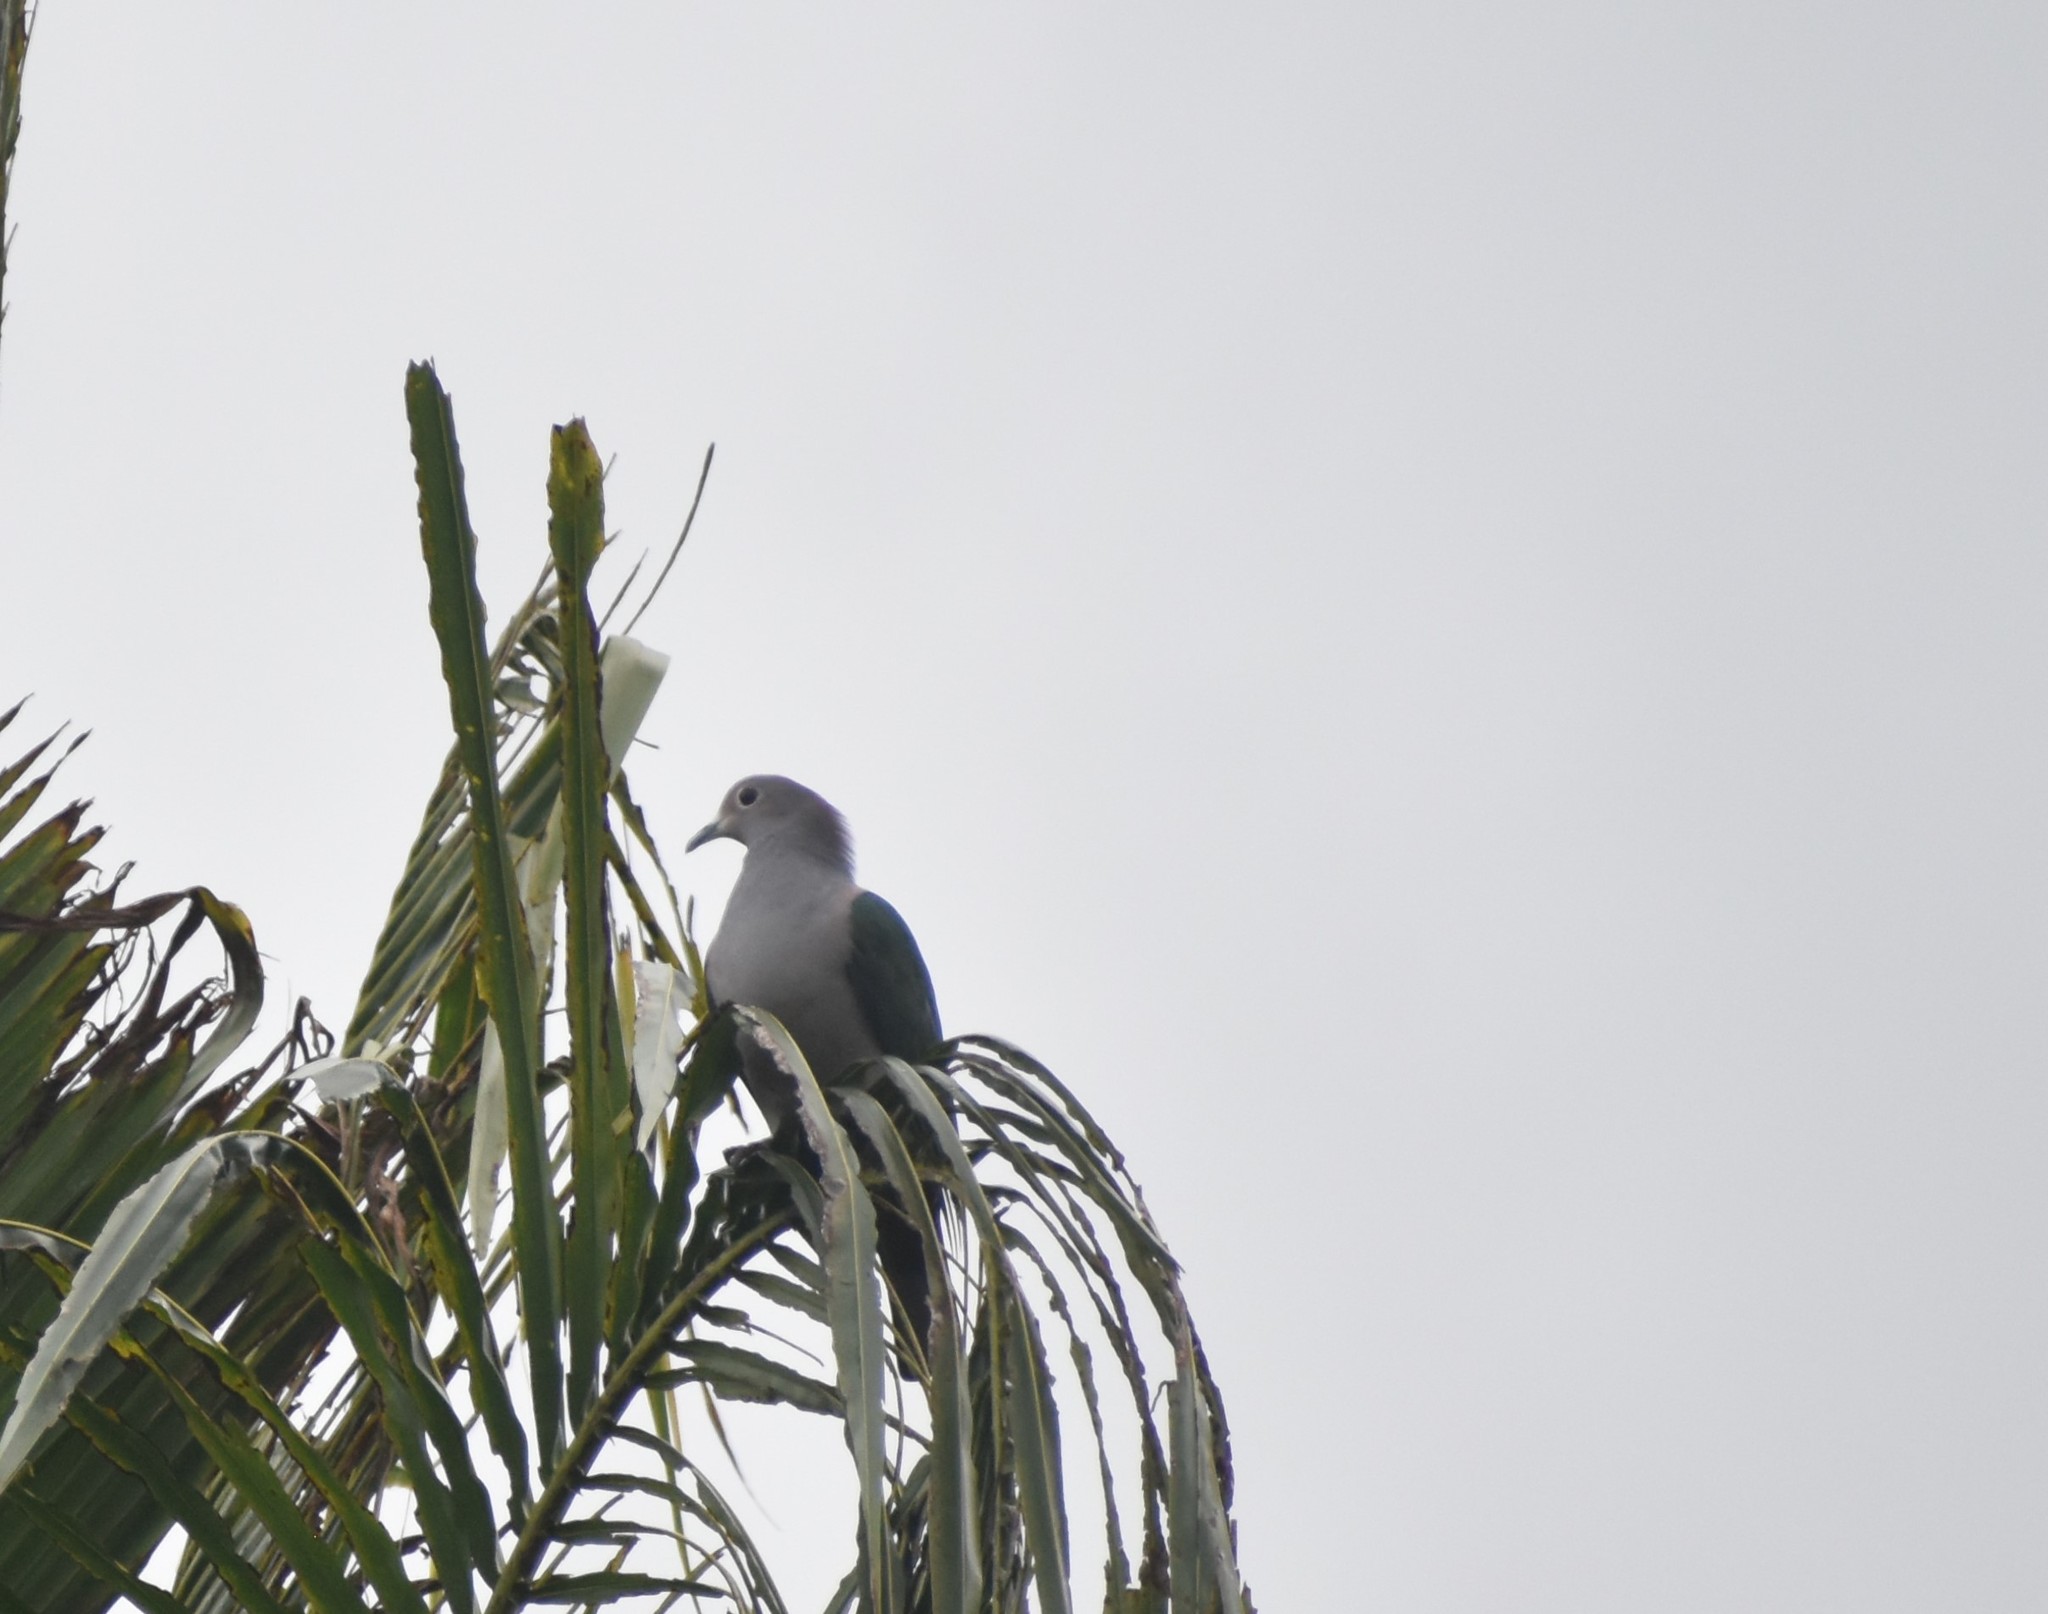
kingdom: Animalia
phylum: Chordata
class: Aves
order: Columbiformes
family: Columbidae
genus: Ducula
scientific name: Ducula aenea
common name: Green imperial pigeon
